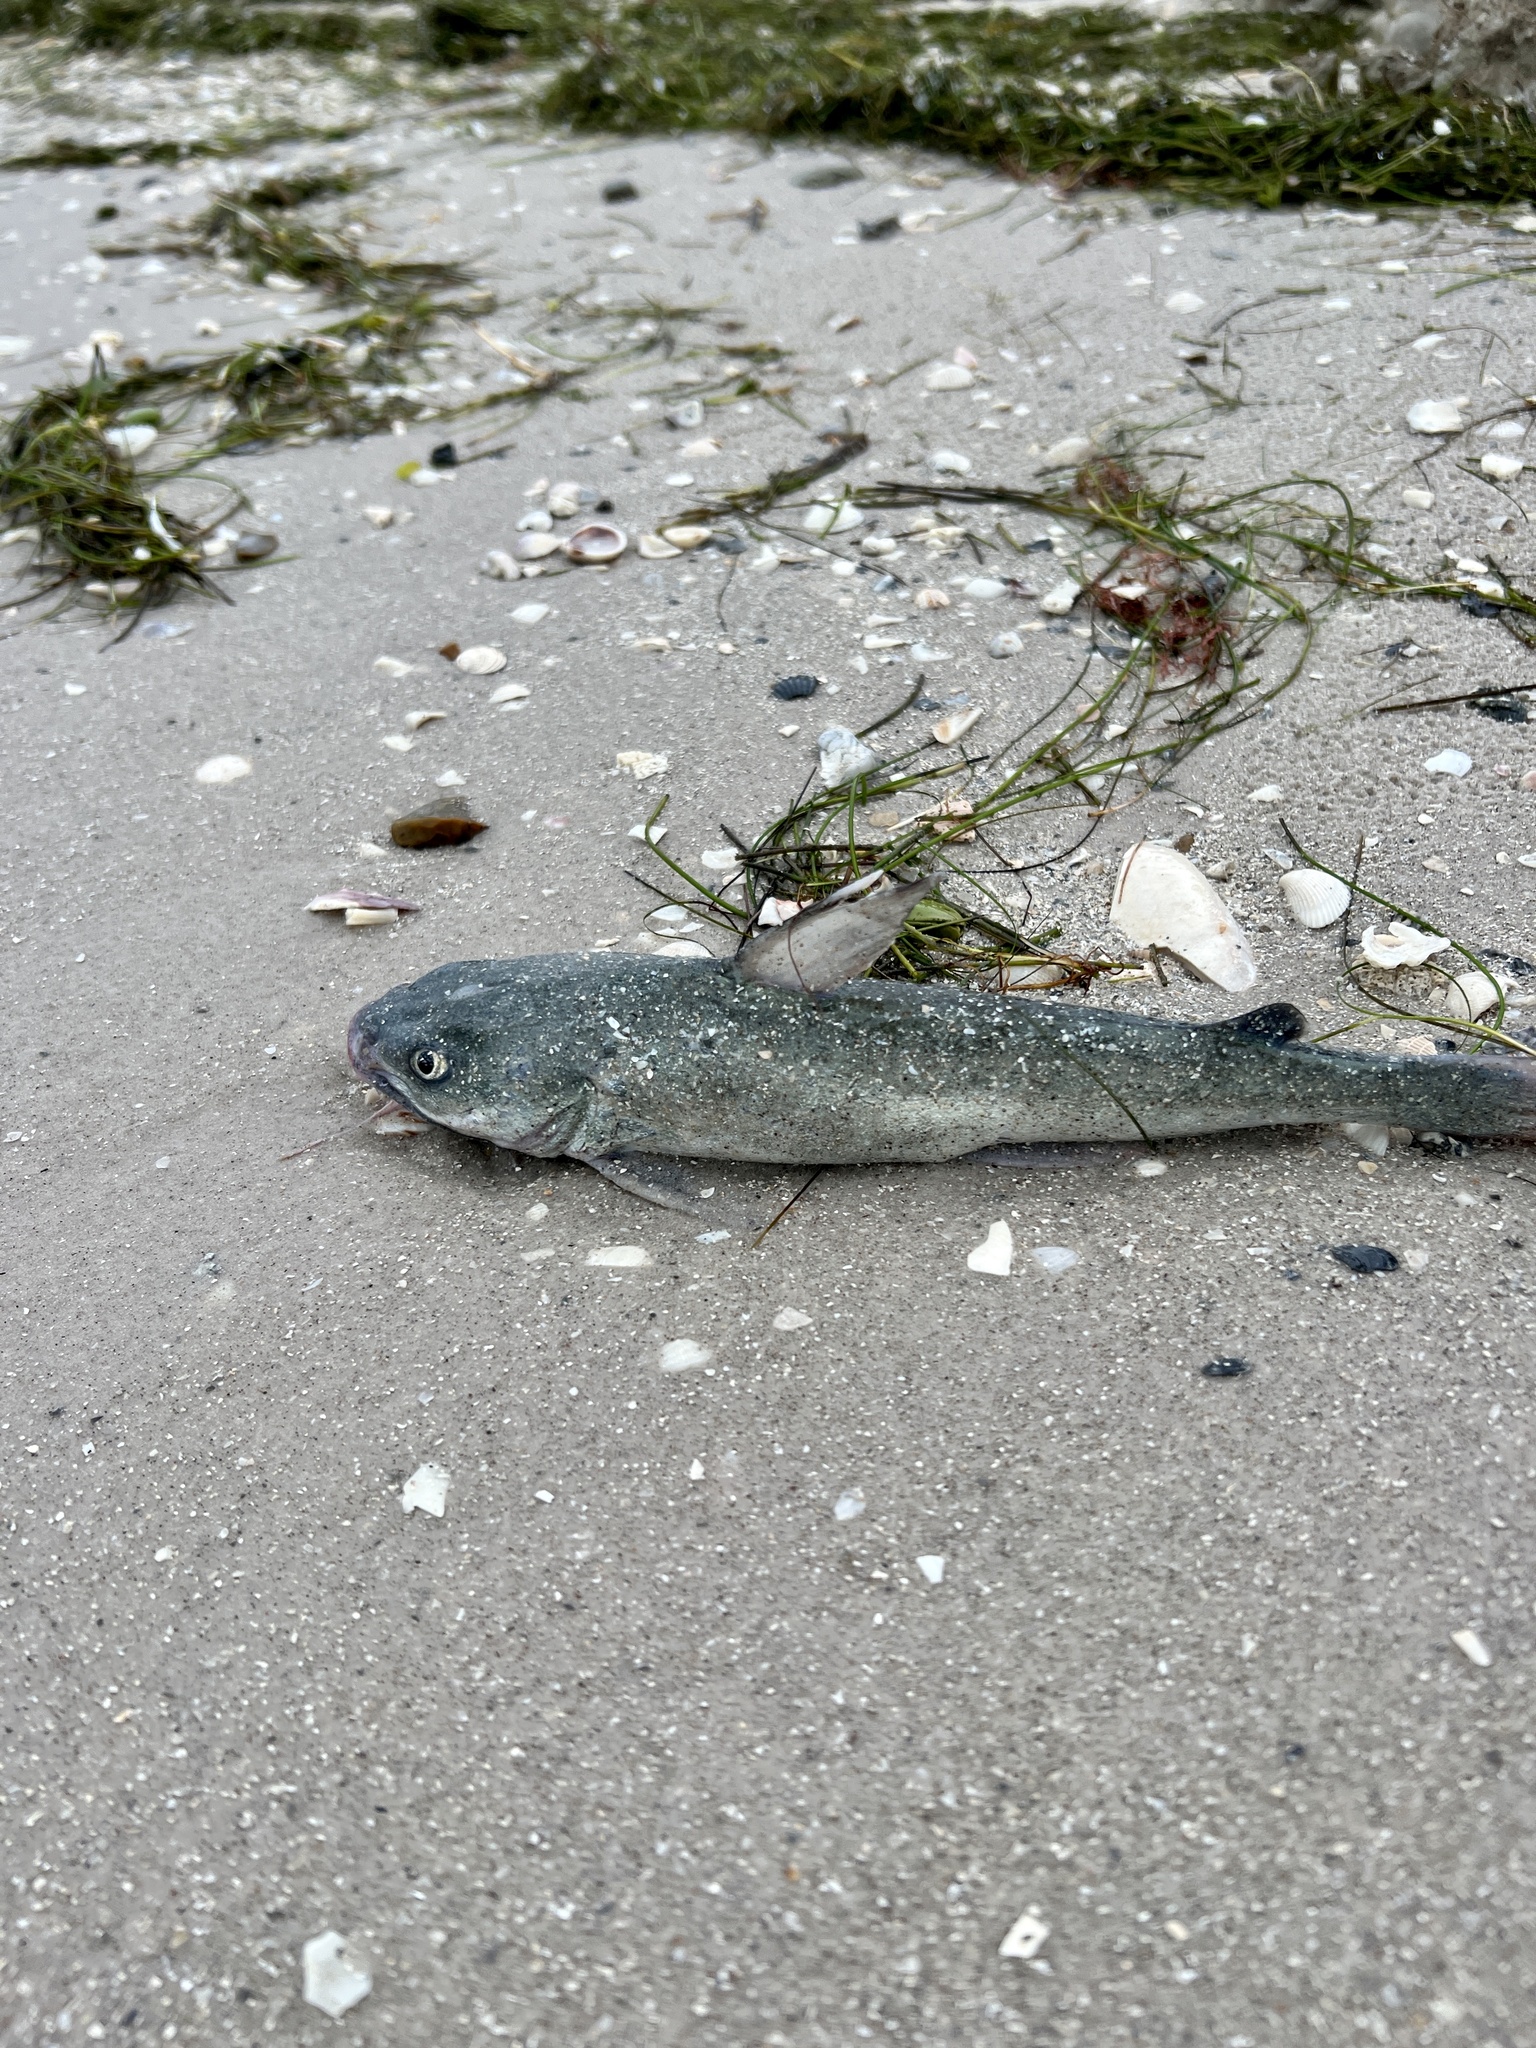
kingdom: Animalia
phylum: Chordata
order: Siluriformes
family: Ariidae
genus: Ariopsis
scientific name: Ariopsis felis
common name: Hardhead catfish
